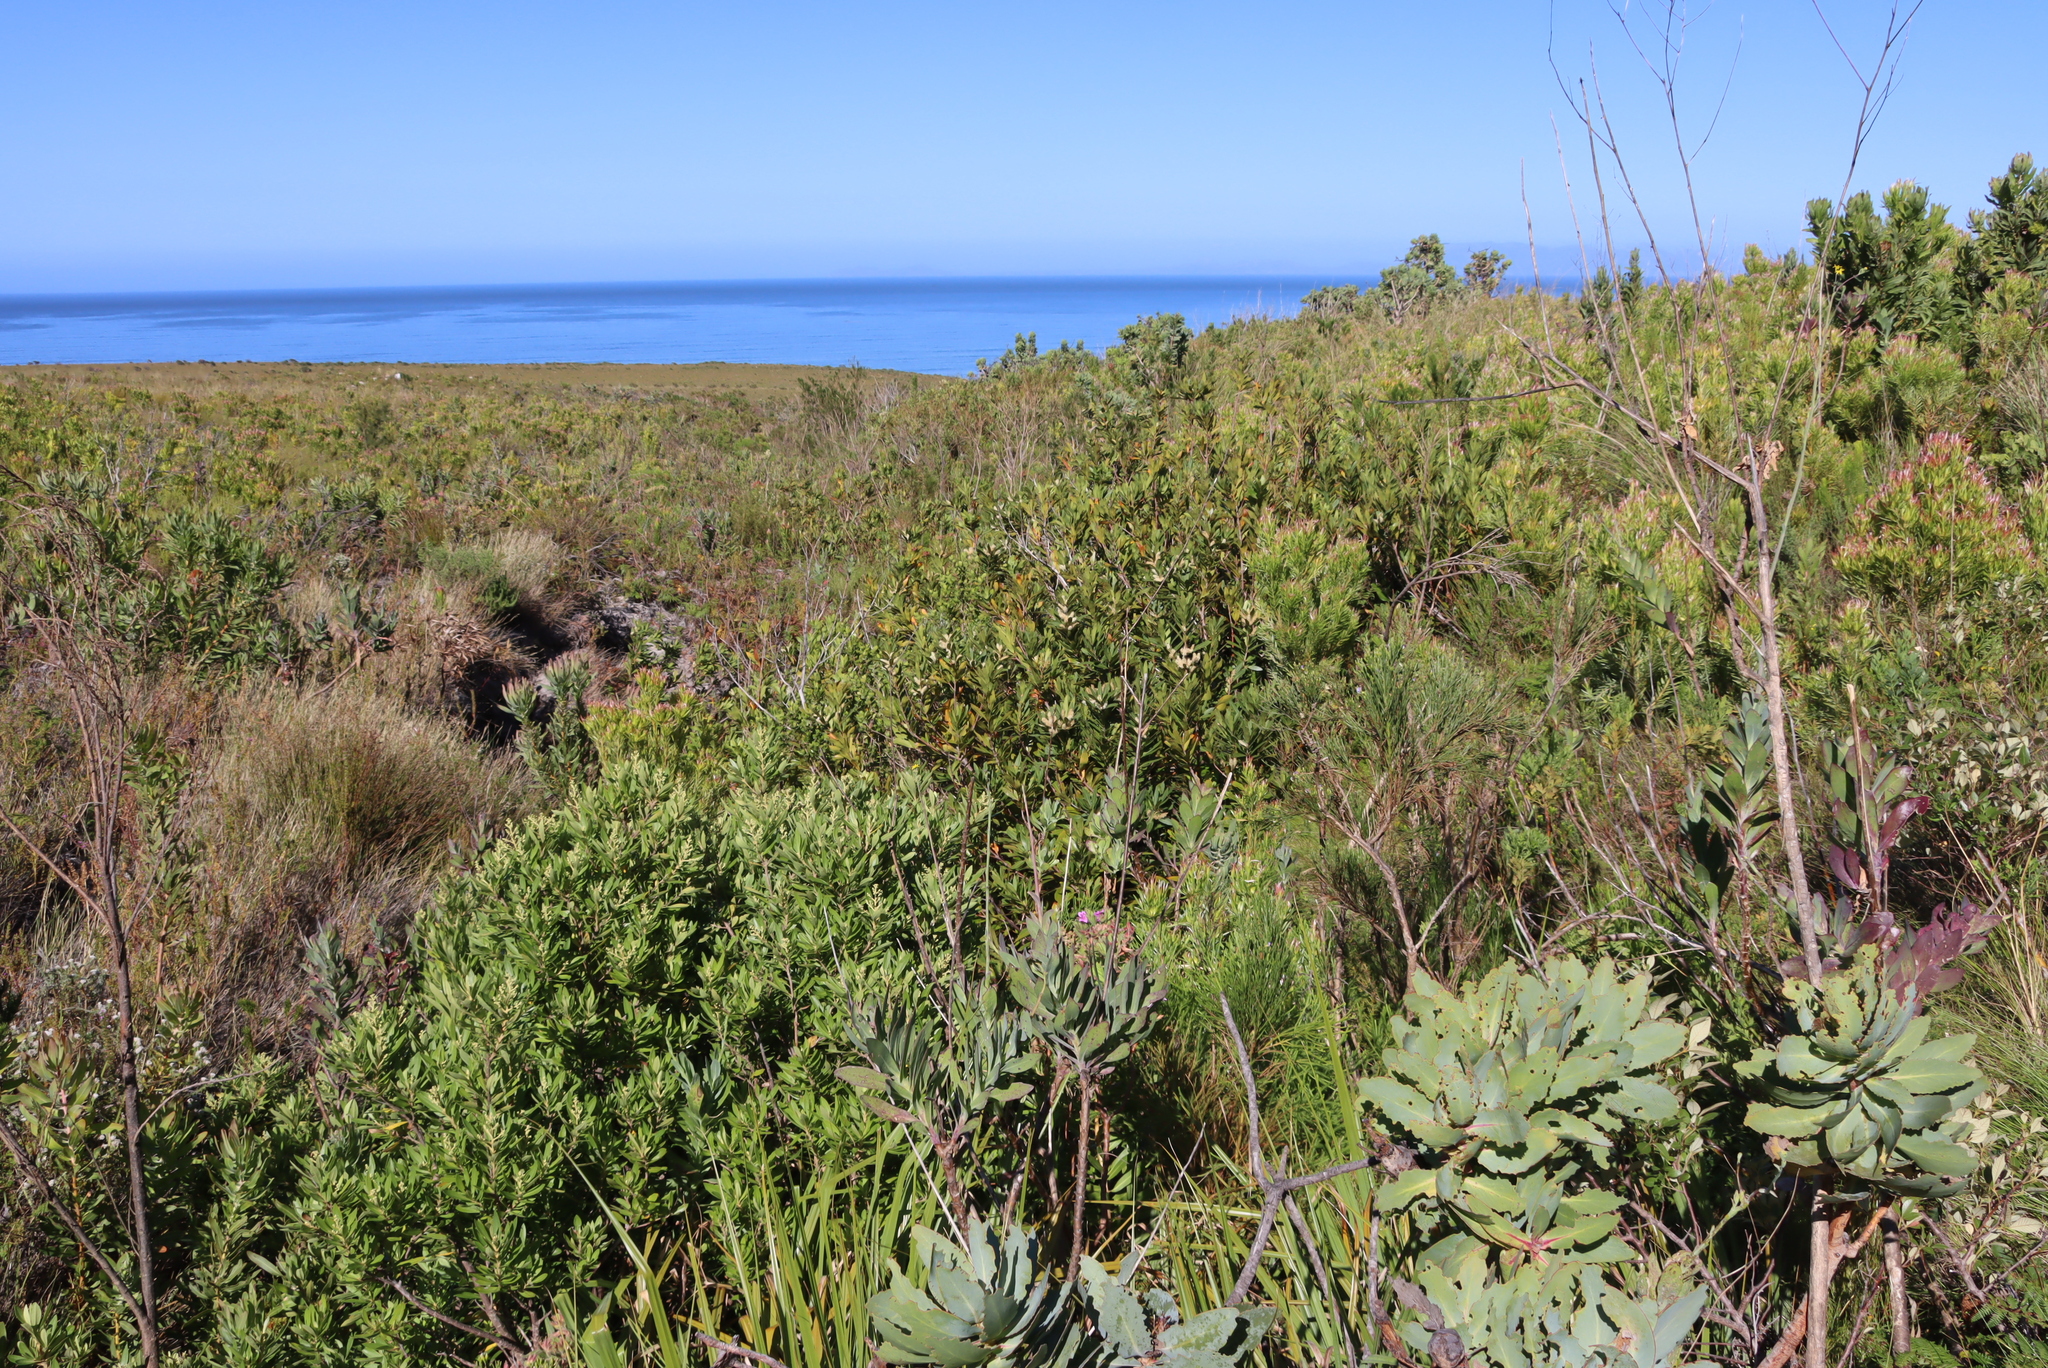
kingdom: Plantae
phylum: Tracheophyta
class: Magnoliopsida
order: Proteales
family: Proteaceae
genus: Brabejum
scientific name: Brabejum stellatifolium
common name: Wild almond
